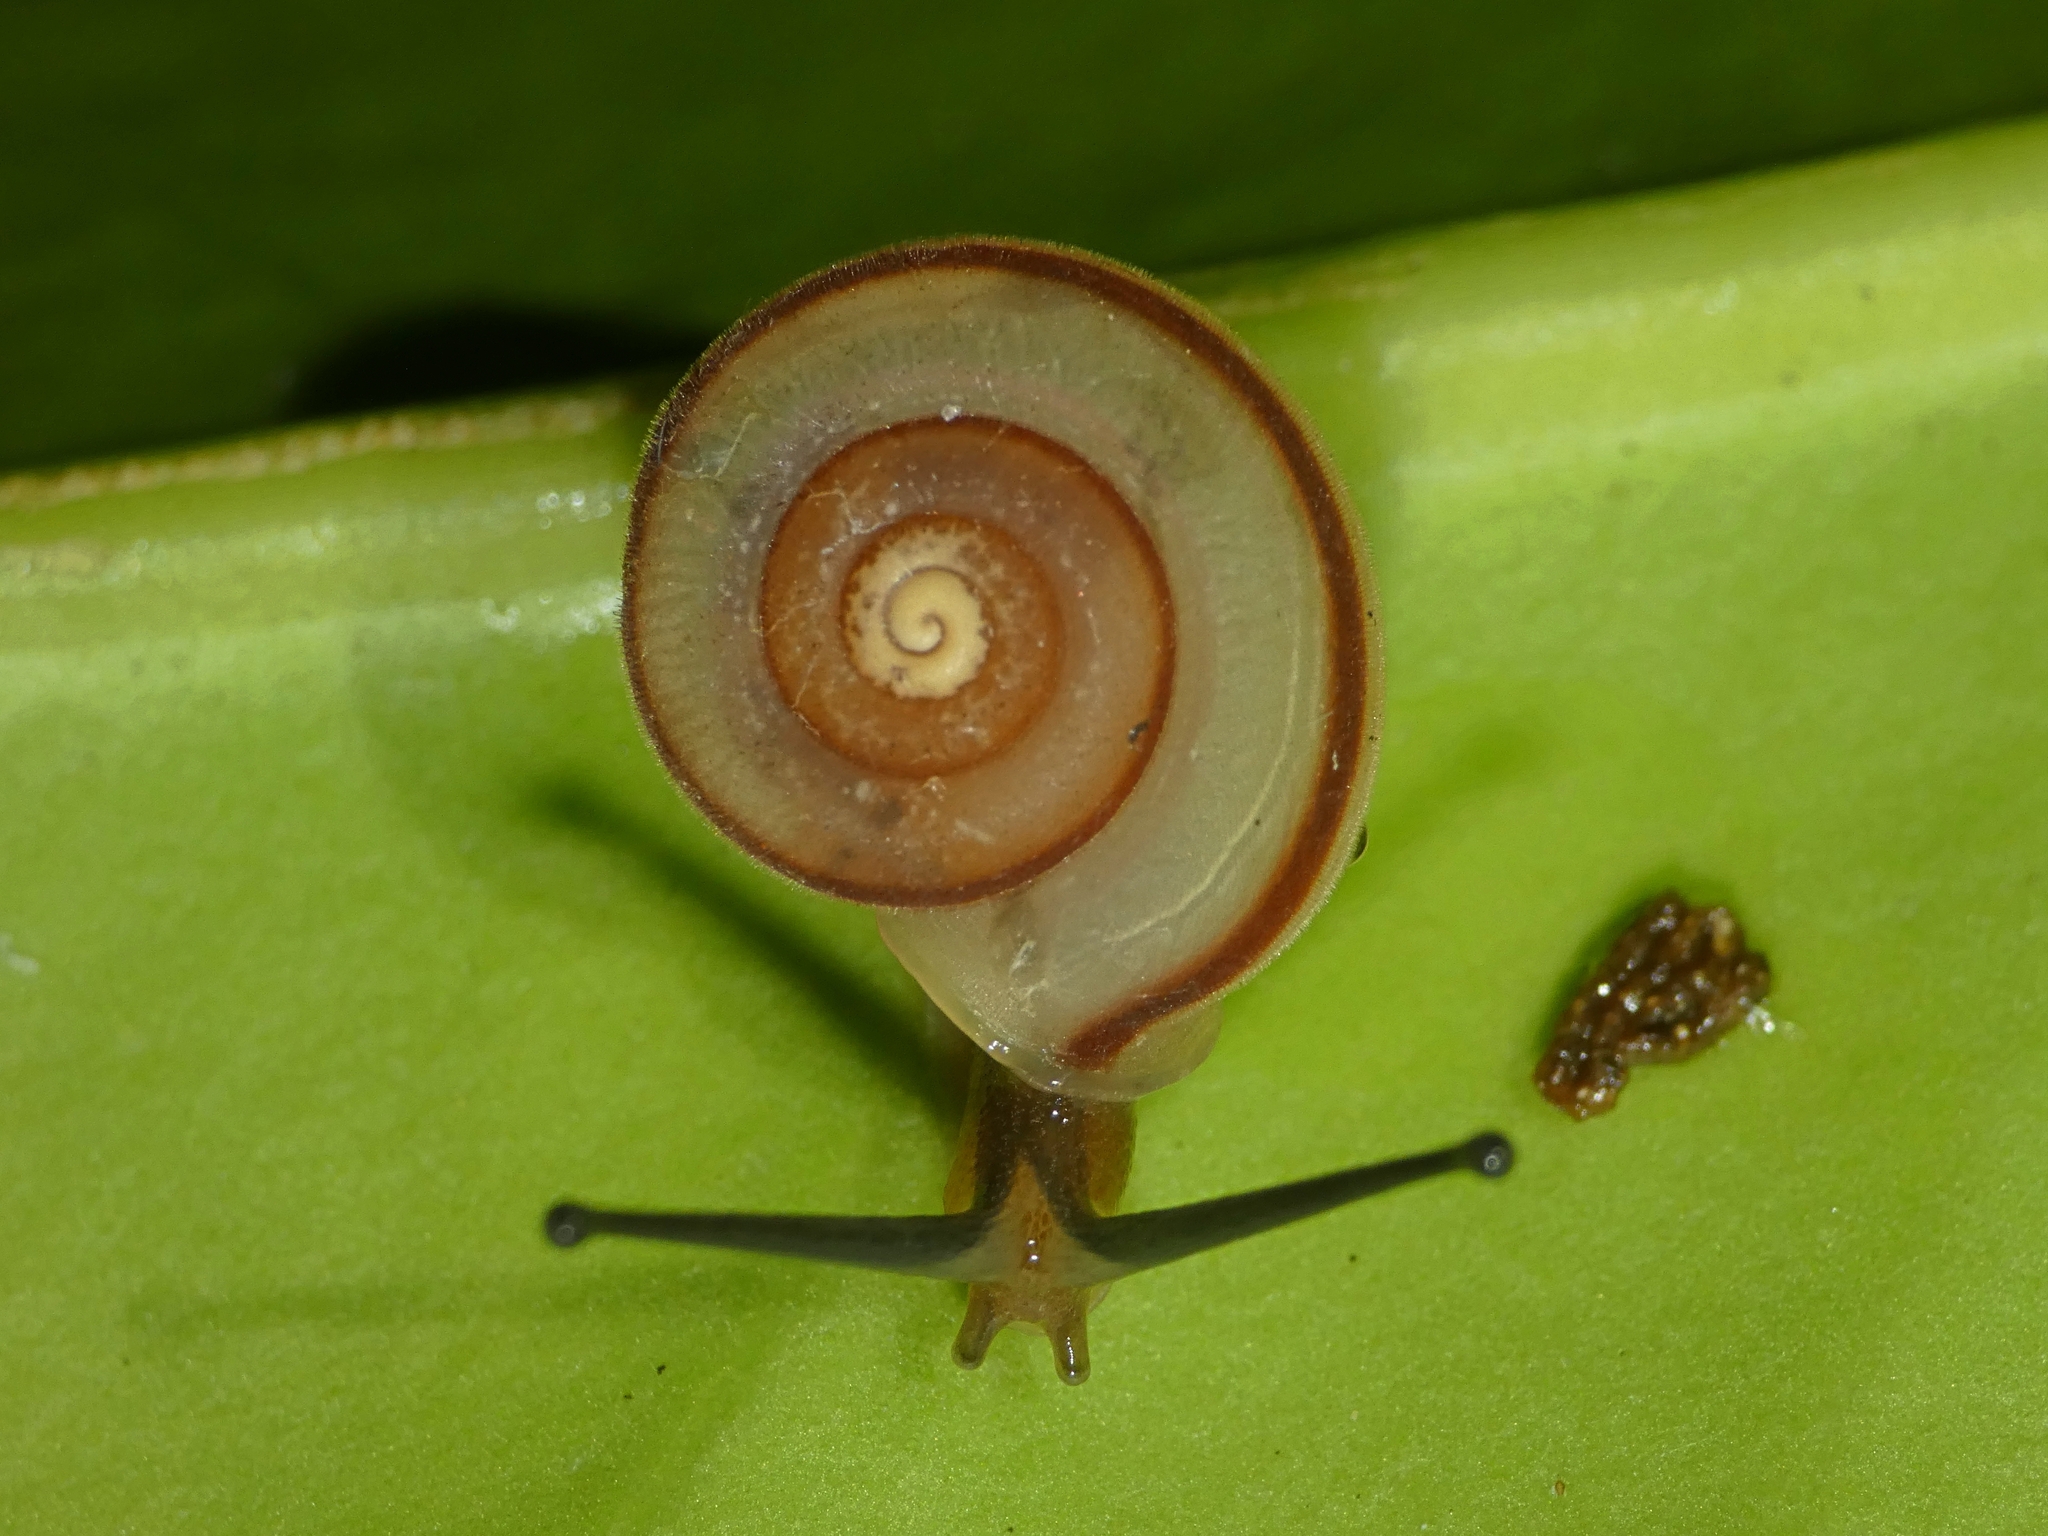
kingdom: Animalia
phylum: Mollusca
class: Gastropoda
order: Stylommatophora
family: Camaenidae
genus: Protolinitis
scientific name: Protolinitis terriirwinae
